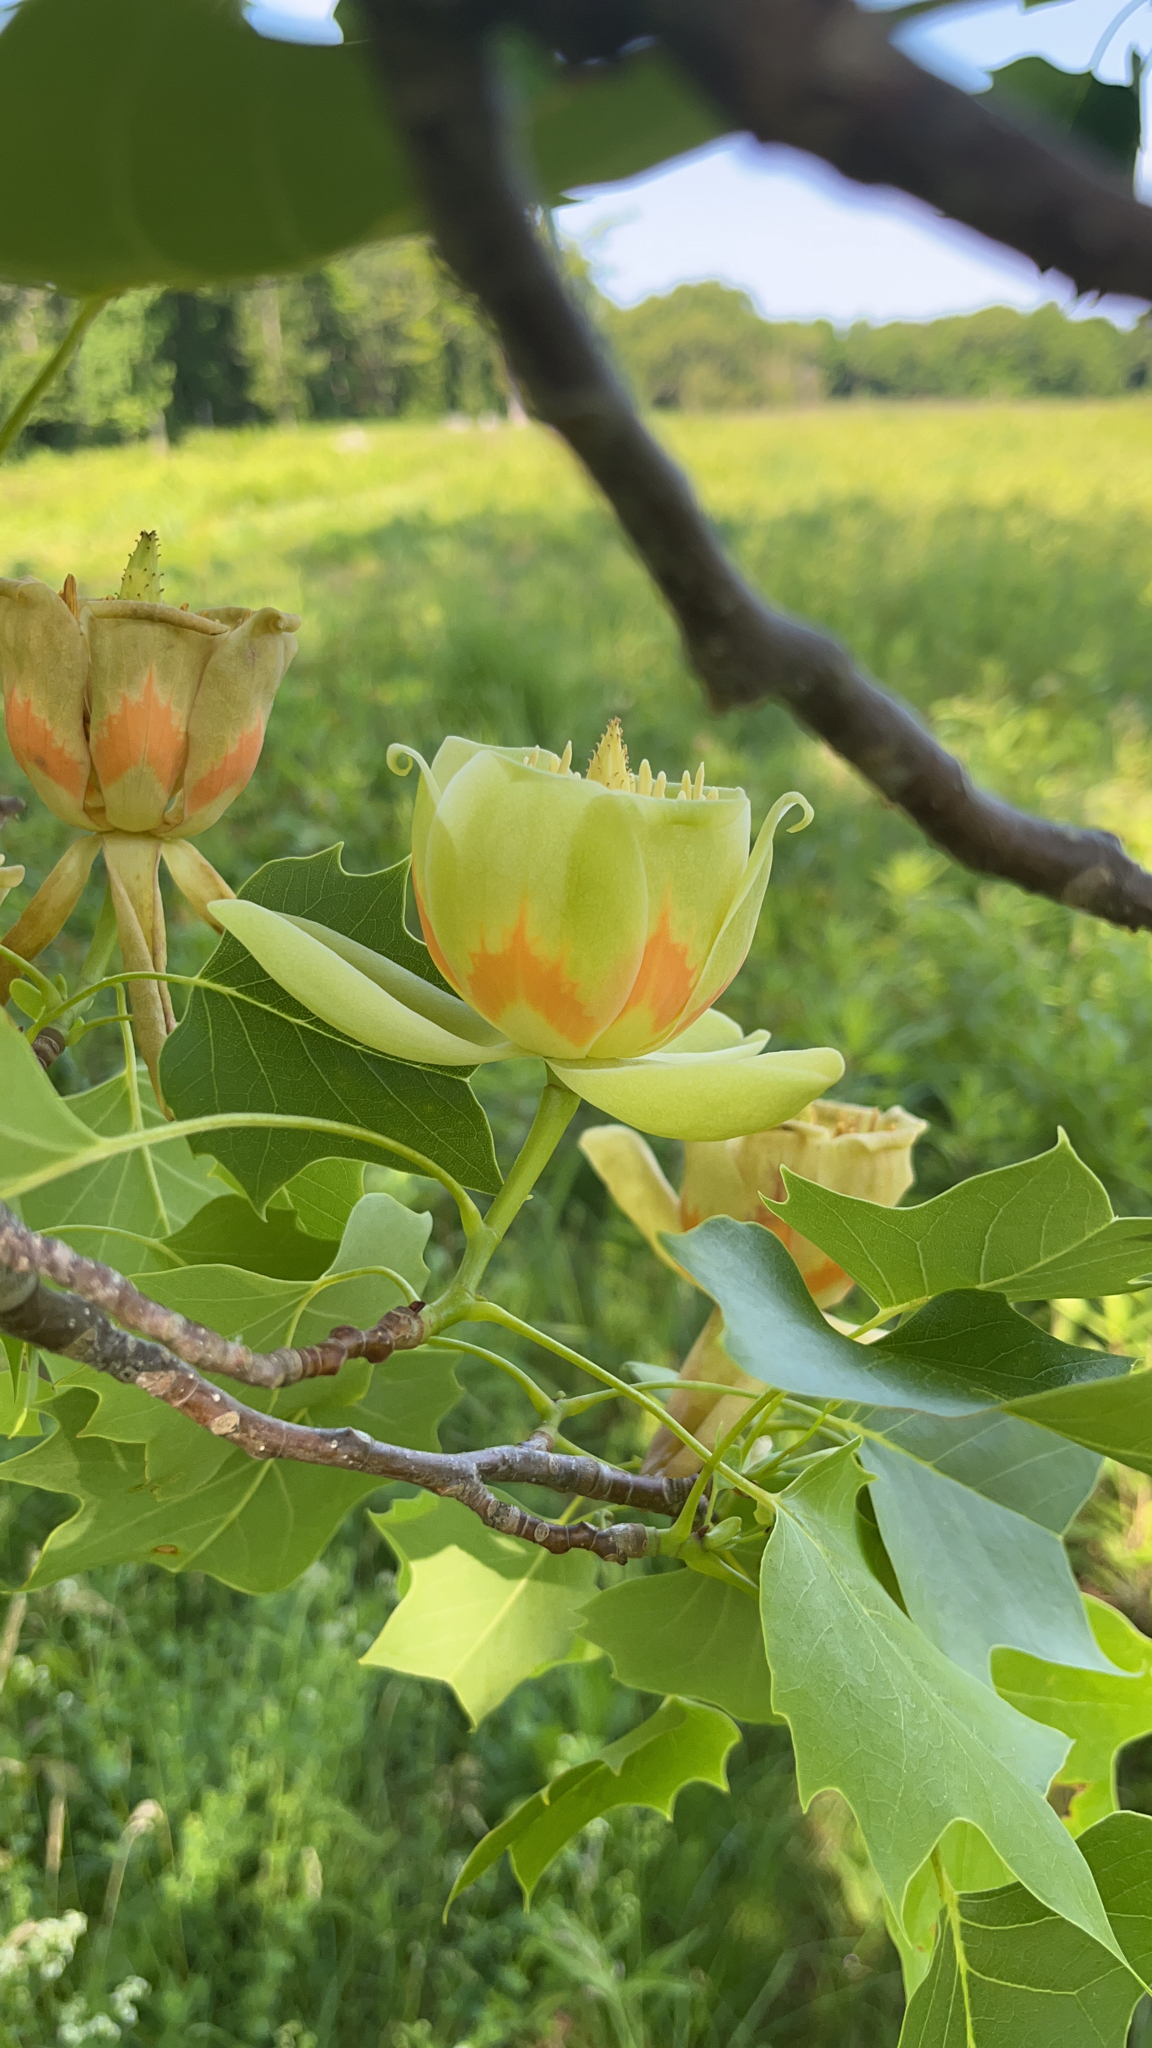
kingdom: Plantae
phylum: Tracheophyta
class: Magnoliopsida
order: Magnoliales
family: Magnoliaceae
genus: Liriodendron
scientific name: Liriodendron tulipifera
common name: Tulip tree
